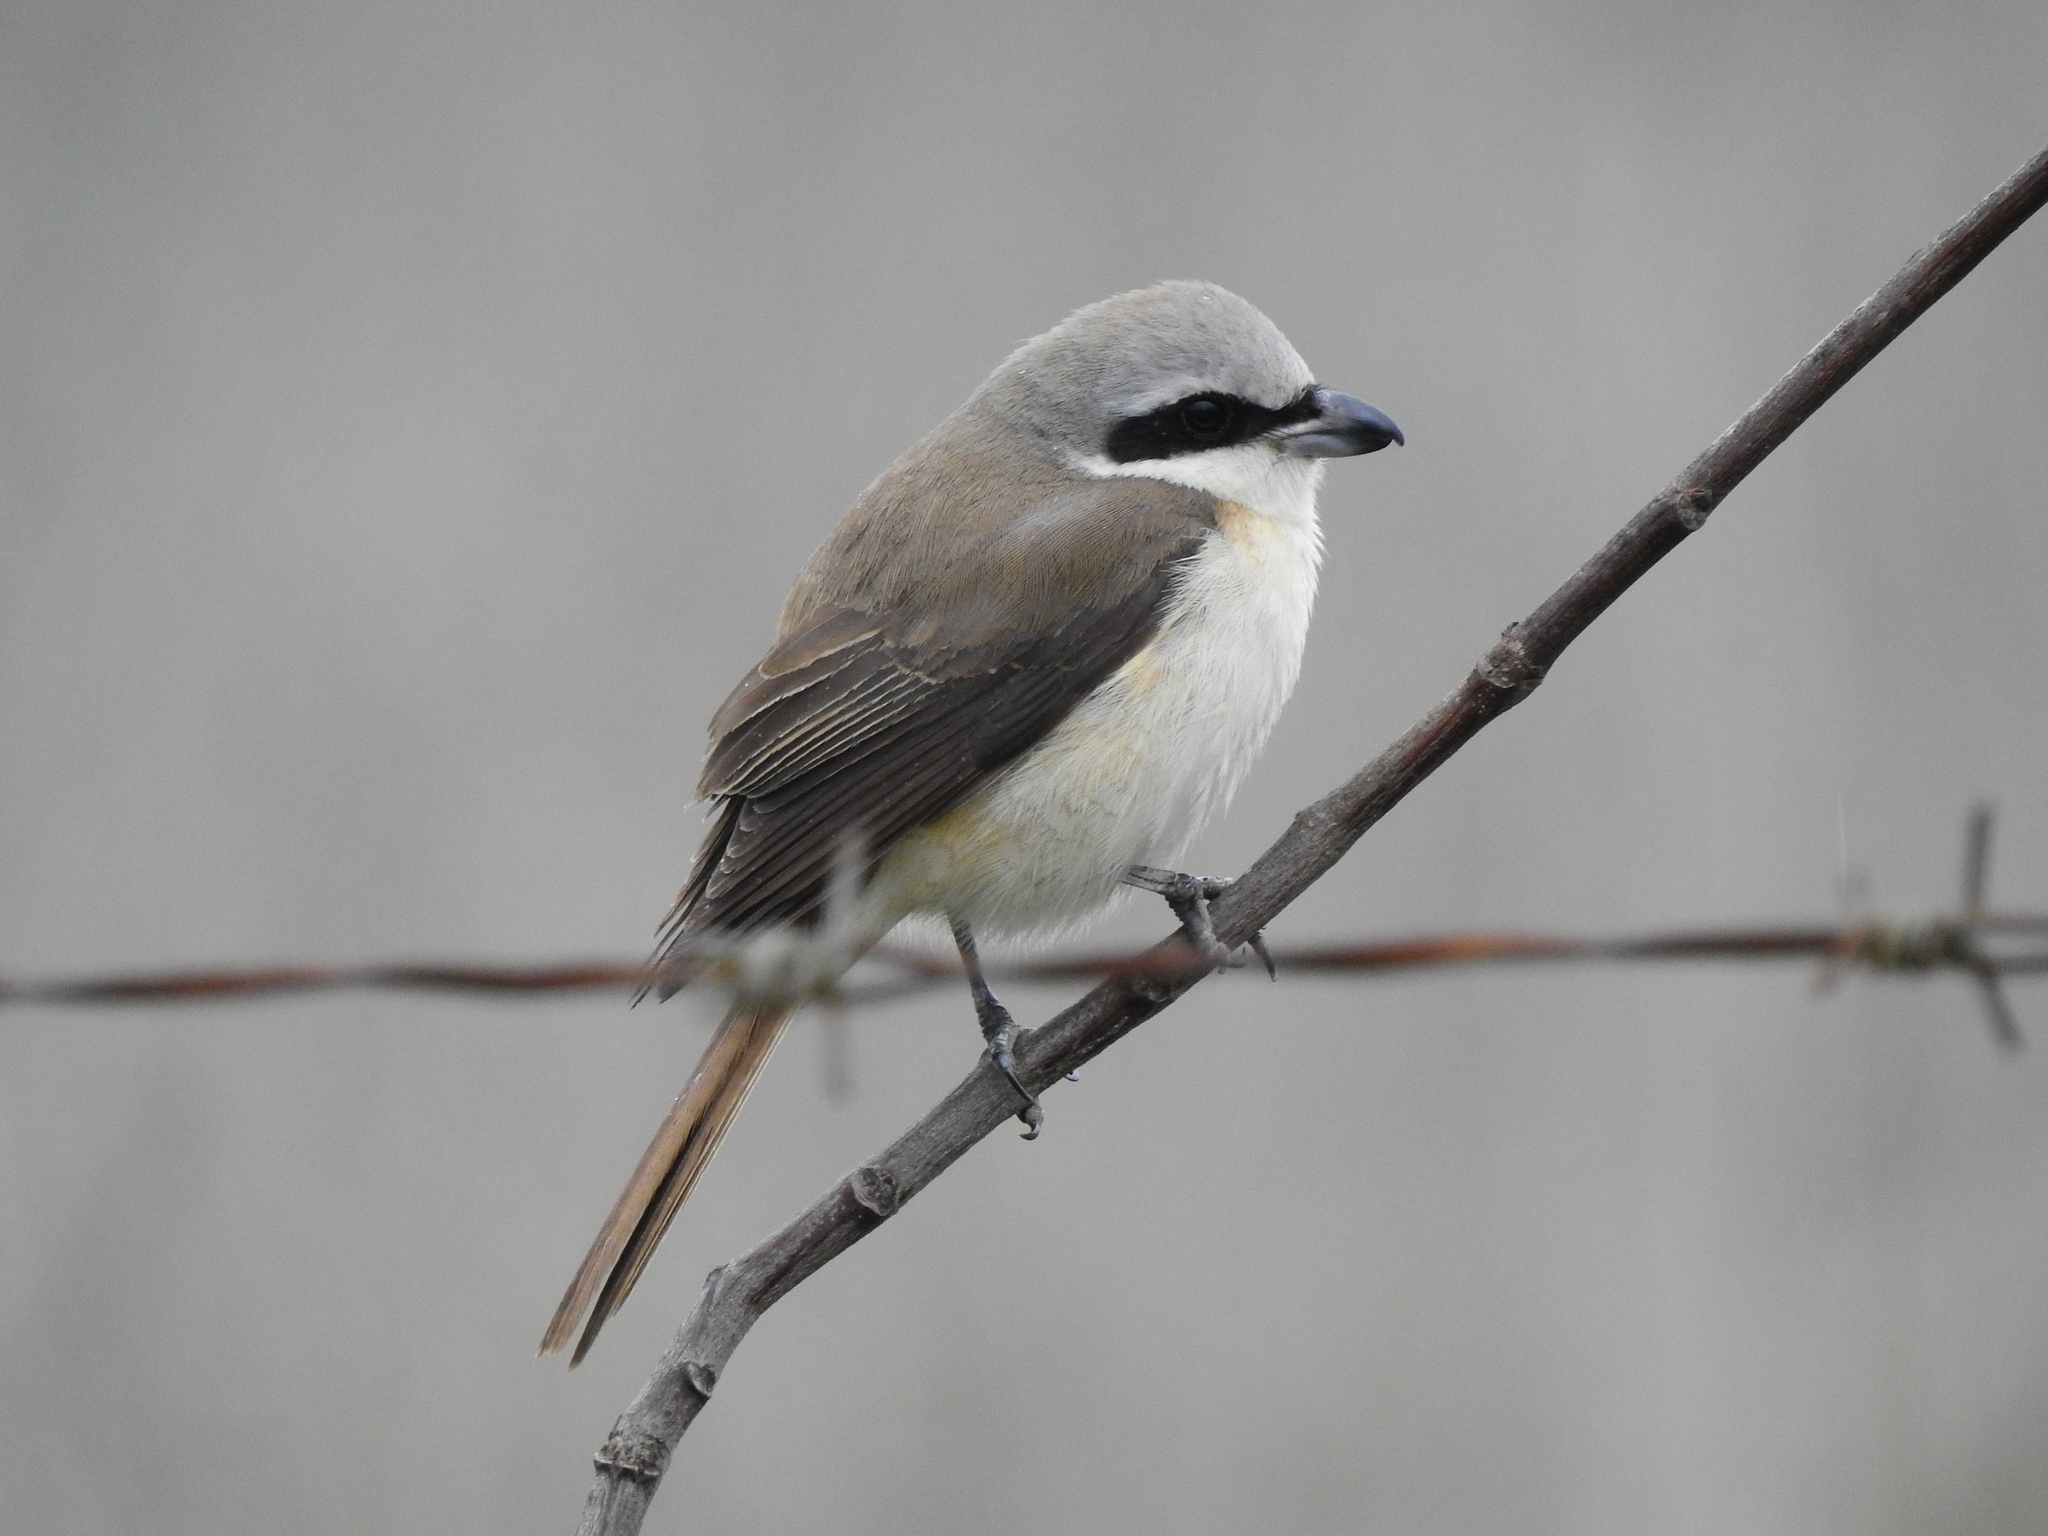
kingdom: Animalia
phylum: Chordata
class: Aves
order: Passeriformes
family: Laniidae
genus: Lanius
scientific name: Lanius cristatus
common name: Brown shrike
